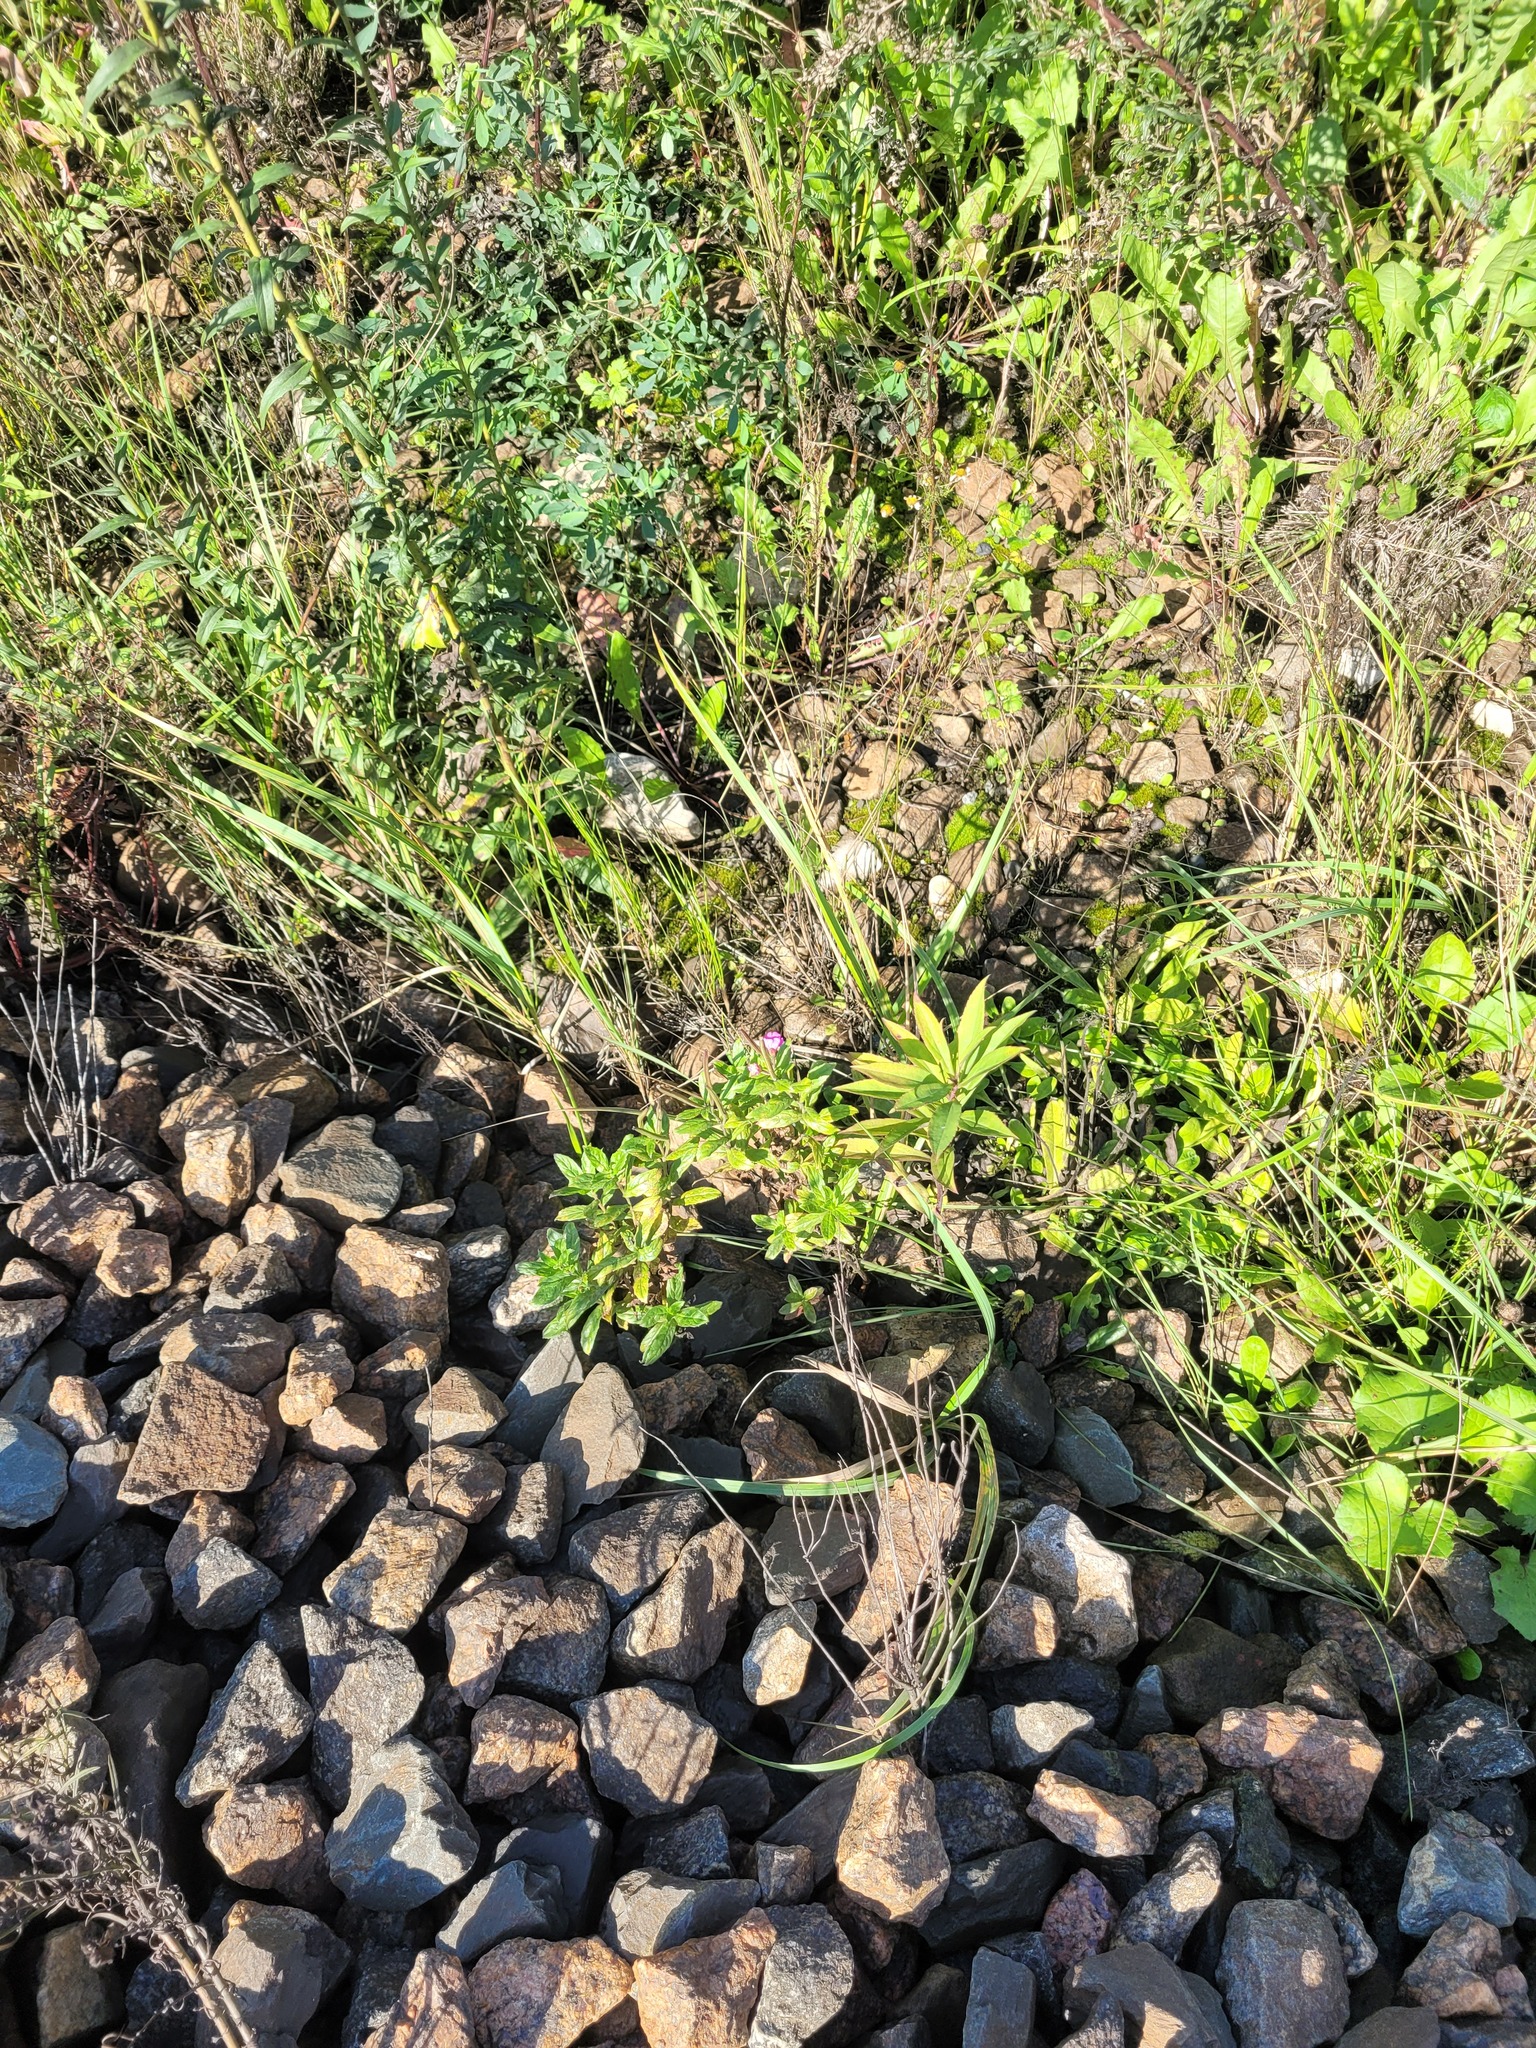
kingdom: Plantae
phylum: Tracheophyta
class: Magnoliopsida
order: Myrtales
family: Onagraceae
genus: Epilobium
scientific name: Epilobium hirsutum
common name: Great willowherb
